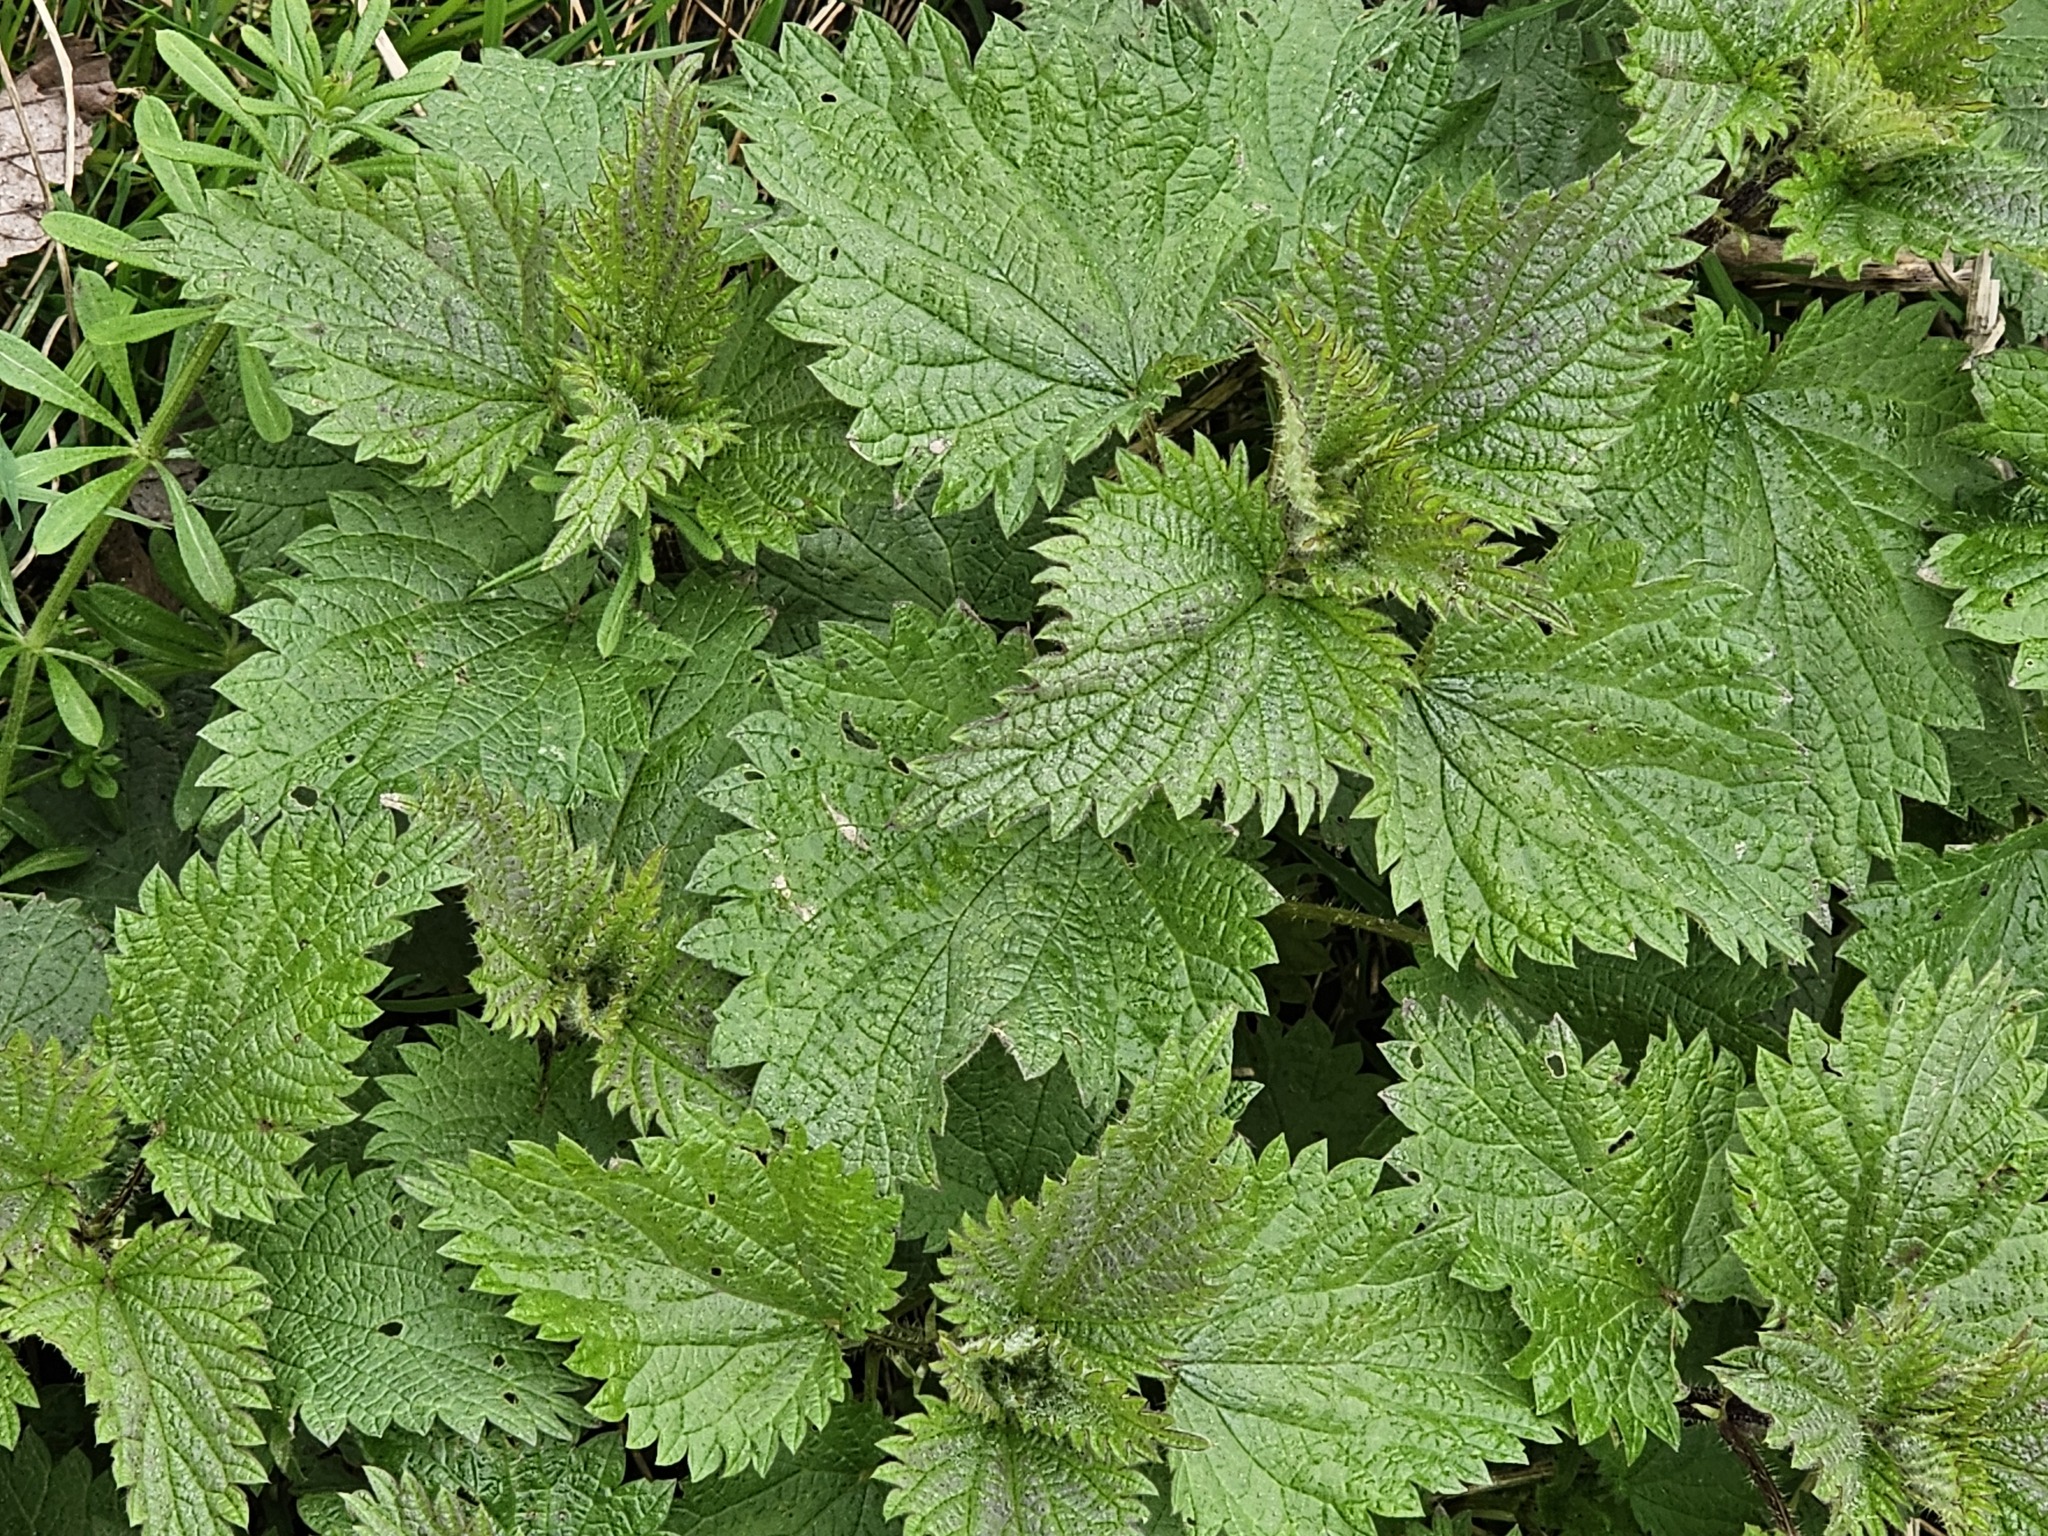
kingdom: Plantae
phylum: Tracheophyta
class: Magnoliopsida
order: Rosales
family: Urticaceae
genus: Urtica
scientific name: Urtica dioica
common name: Common nettle
